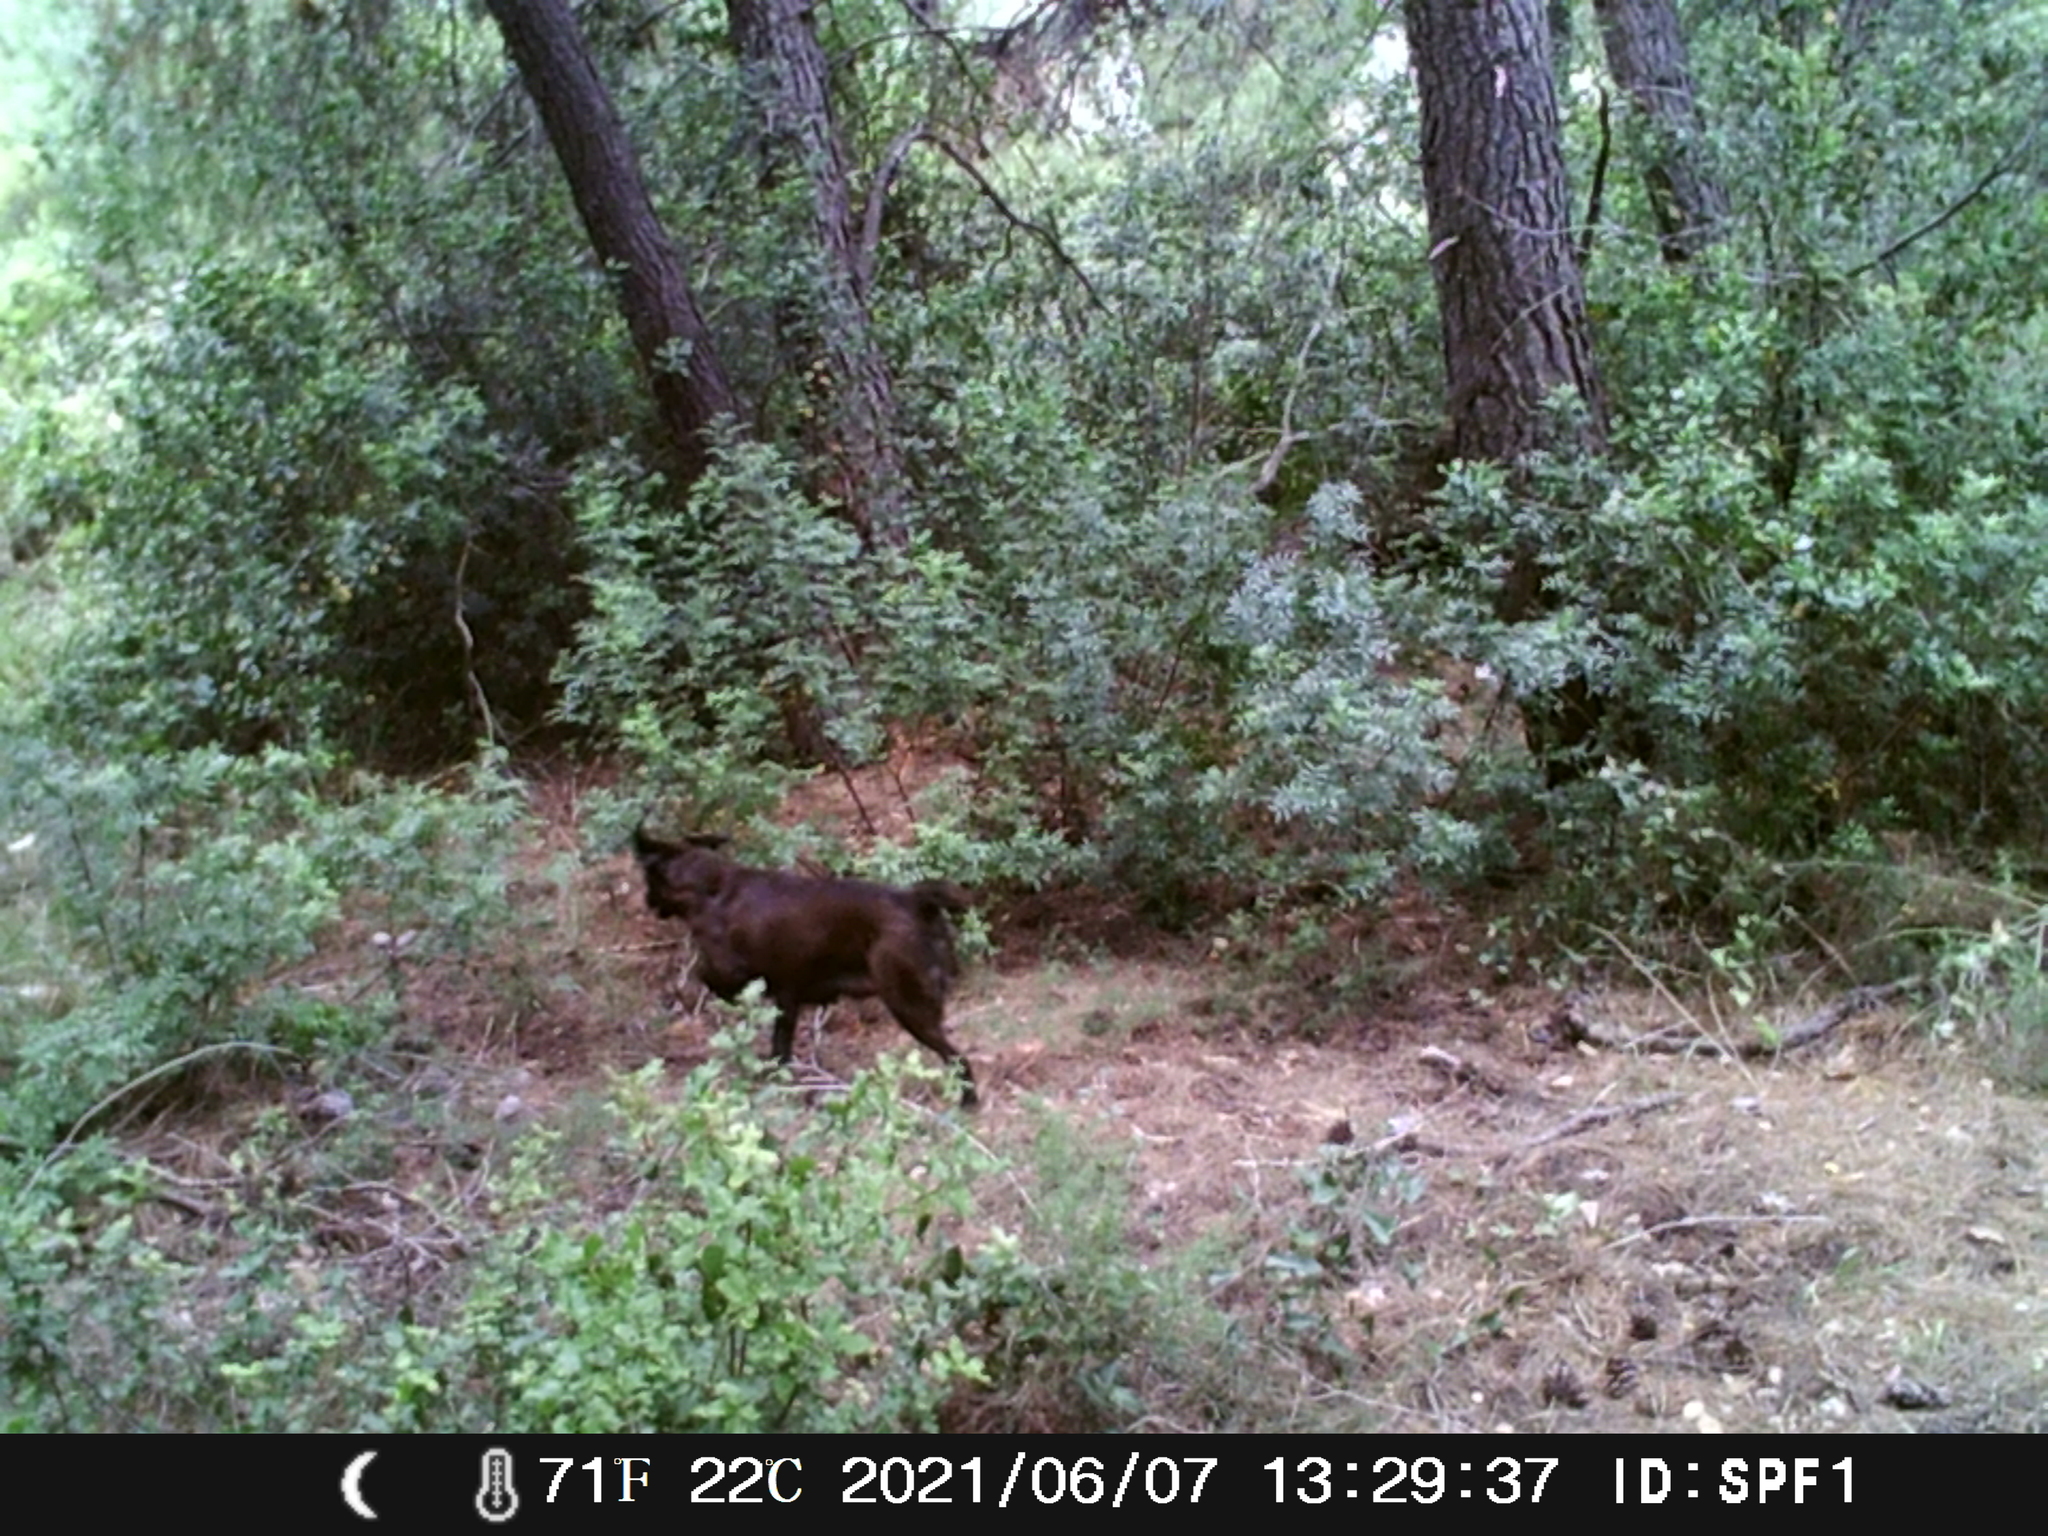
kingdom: Animalia
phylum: Chordata
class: Mammalia
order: Carnivora
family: Canidae
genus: Canis
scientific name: Canis lupus
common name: Gray wolf
